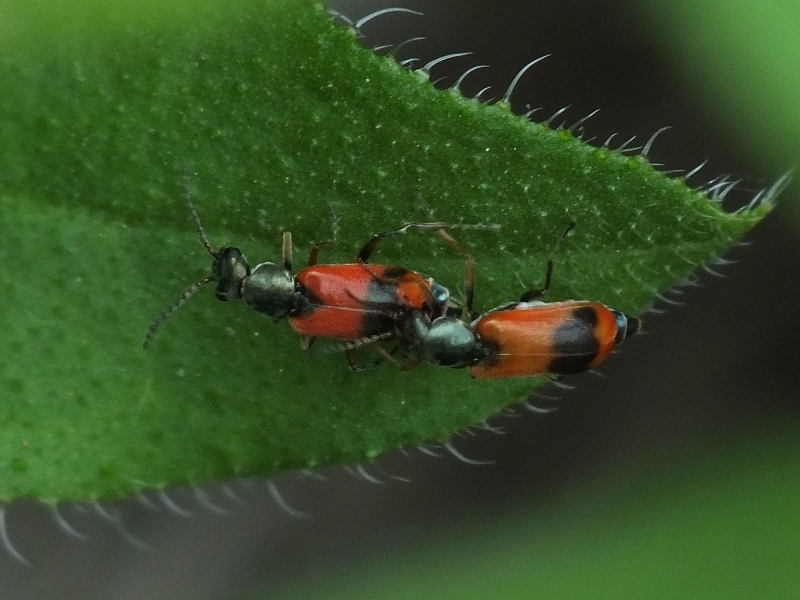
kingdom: Animalia
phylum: Arthropoda
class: Insecta
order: Coleoptera
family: Melyridae
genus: Anthocomus
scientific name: Anthocomus equestris
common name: Black-banded soft-winged flower beetle
